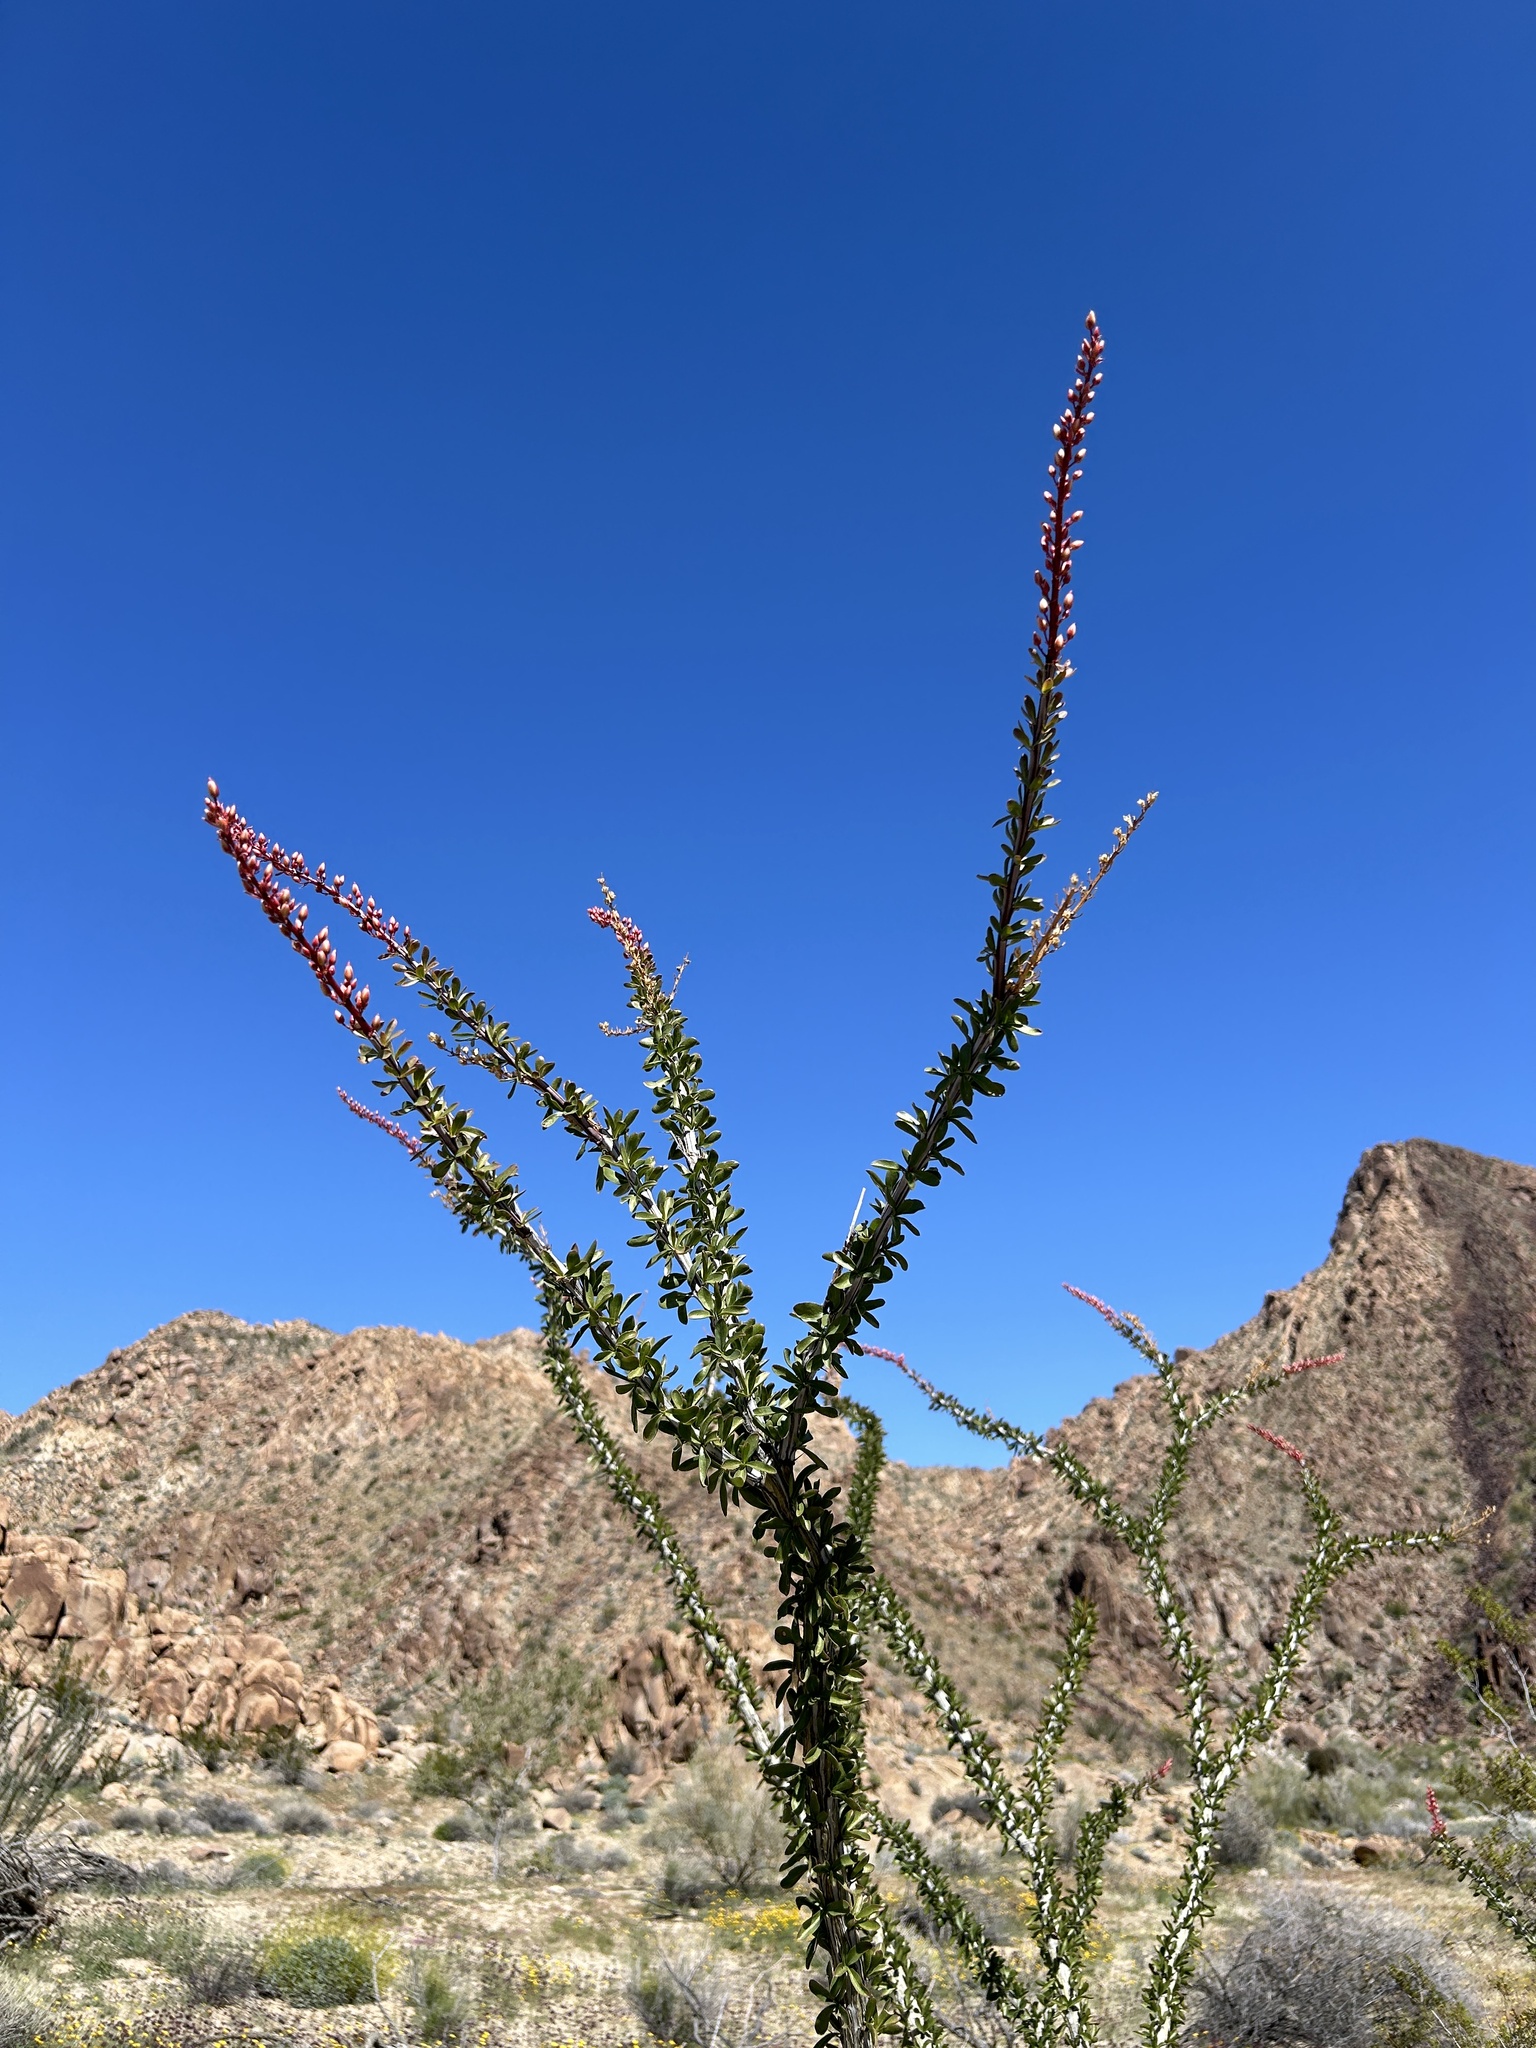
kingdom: Plantae
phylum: Tracheophyta
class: Magnoliopsida
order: Ericales
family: Fouquieriaceae
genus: Fouquieria
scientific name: Fouquieria splendens
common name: Vine-cactus
